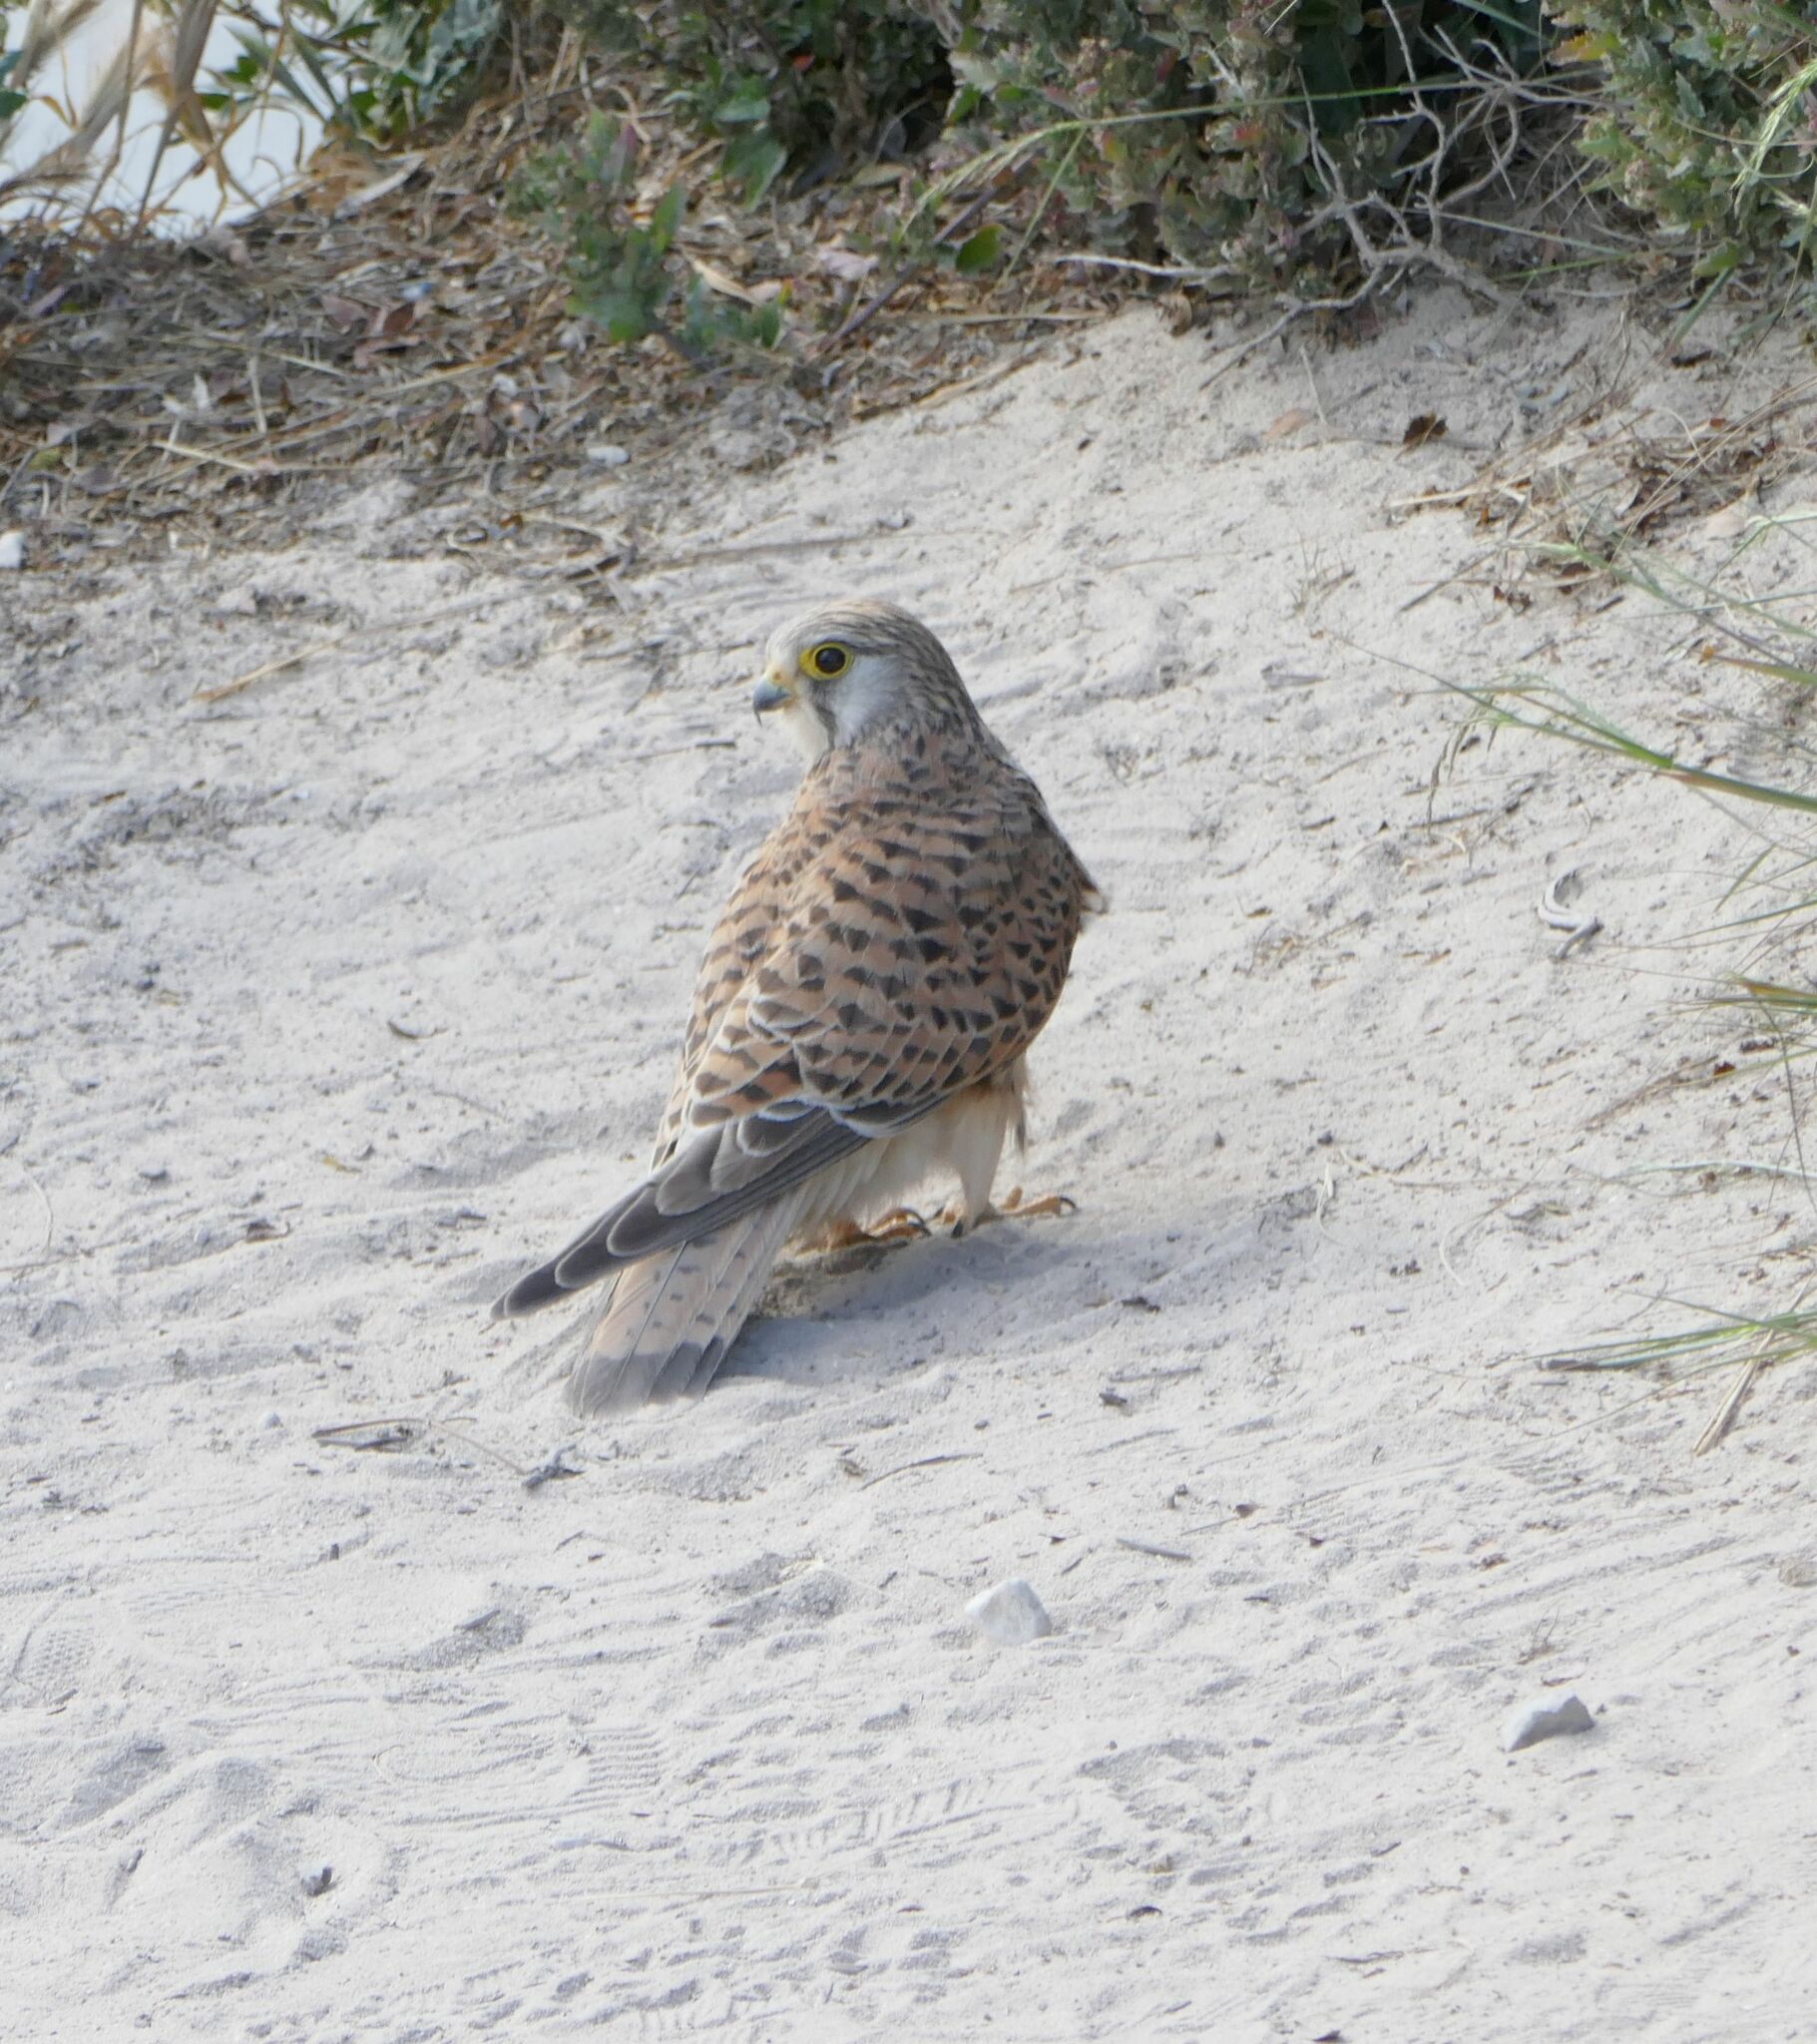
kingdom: Animalia
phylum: Chordata
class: Aves
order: Falconiformes
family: Falconidae
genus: Falco
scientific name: Falco tinnunculus
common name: Common kestrel
